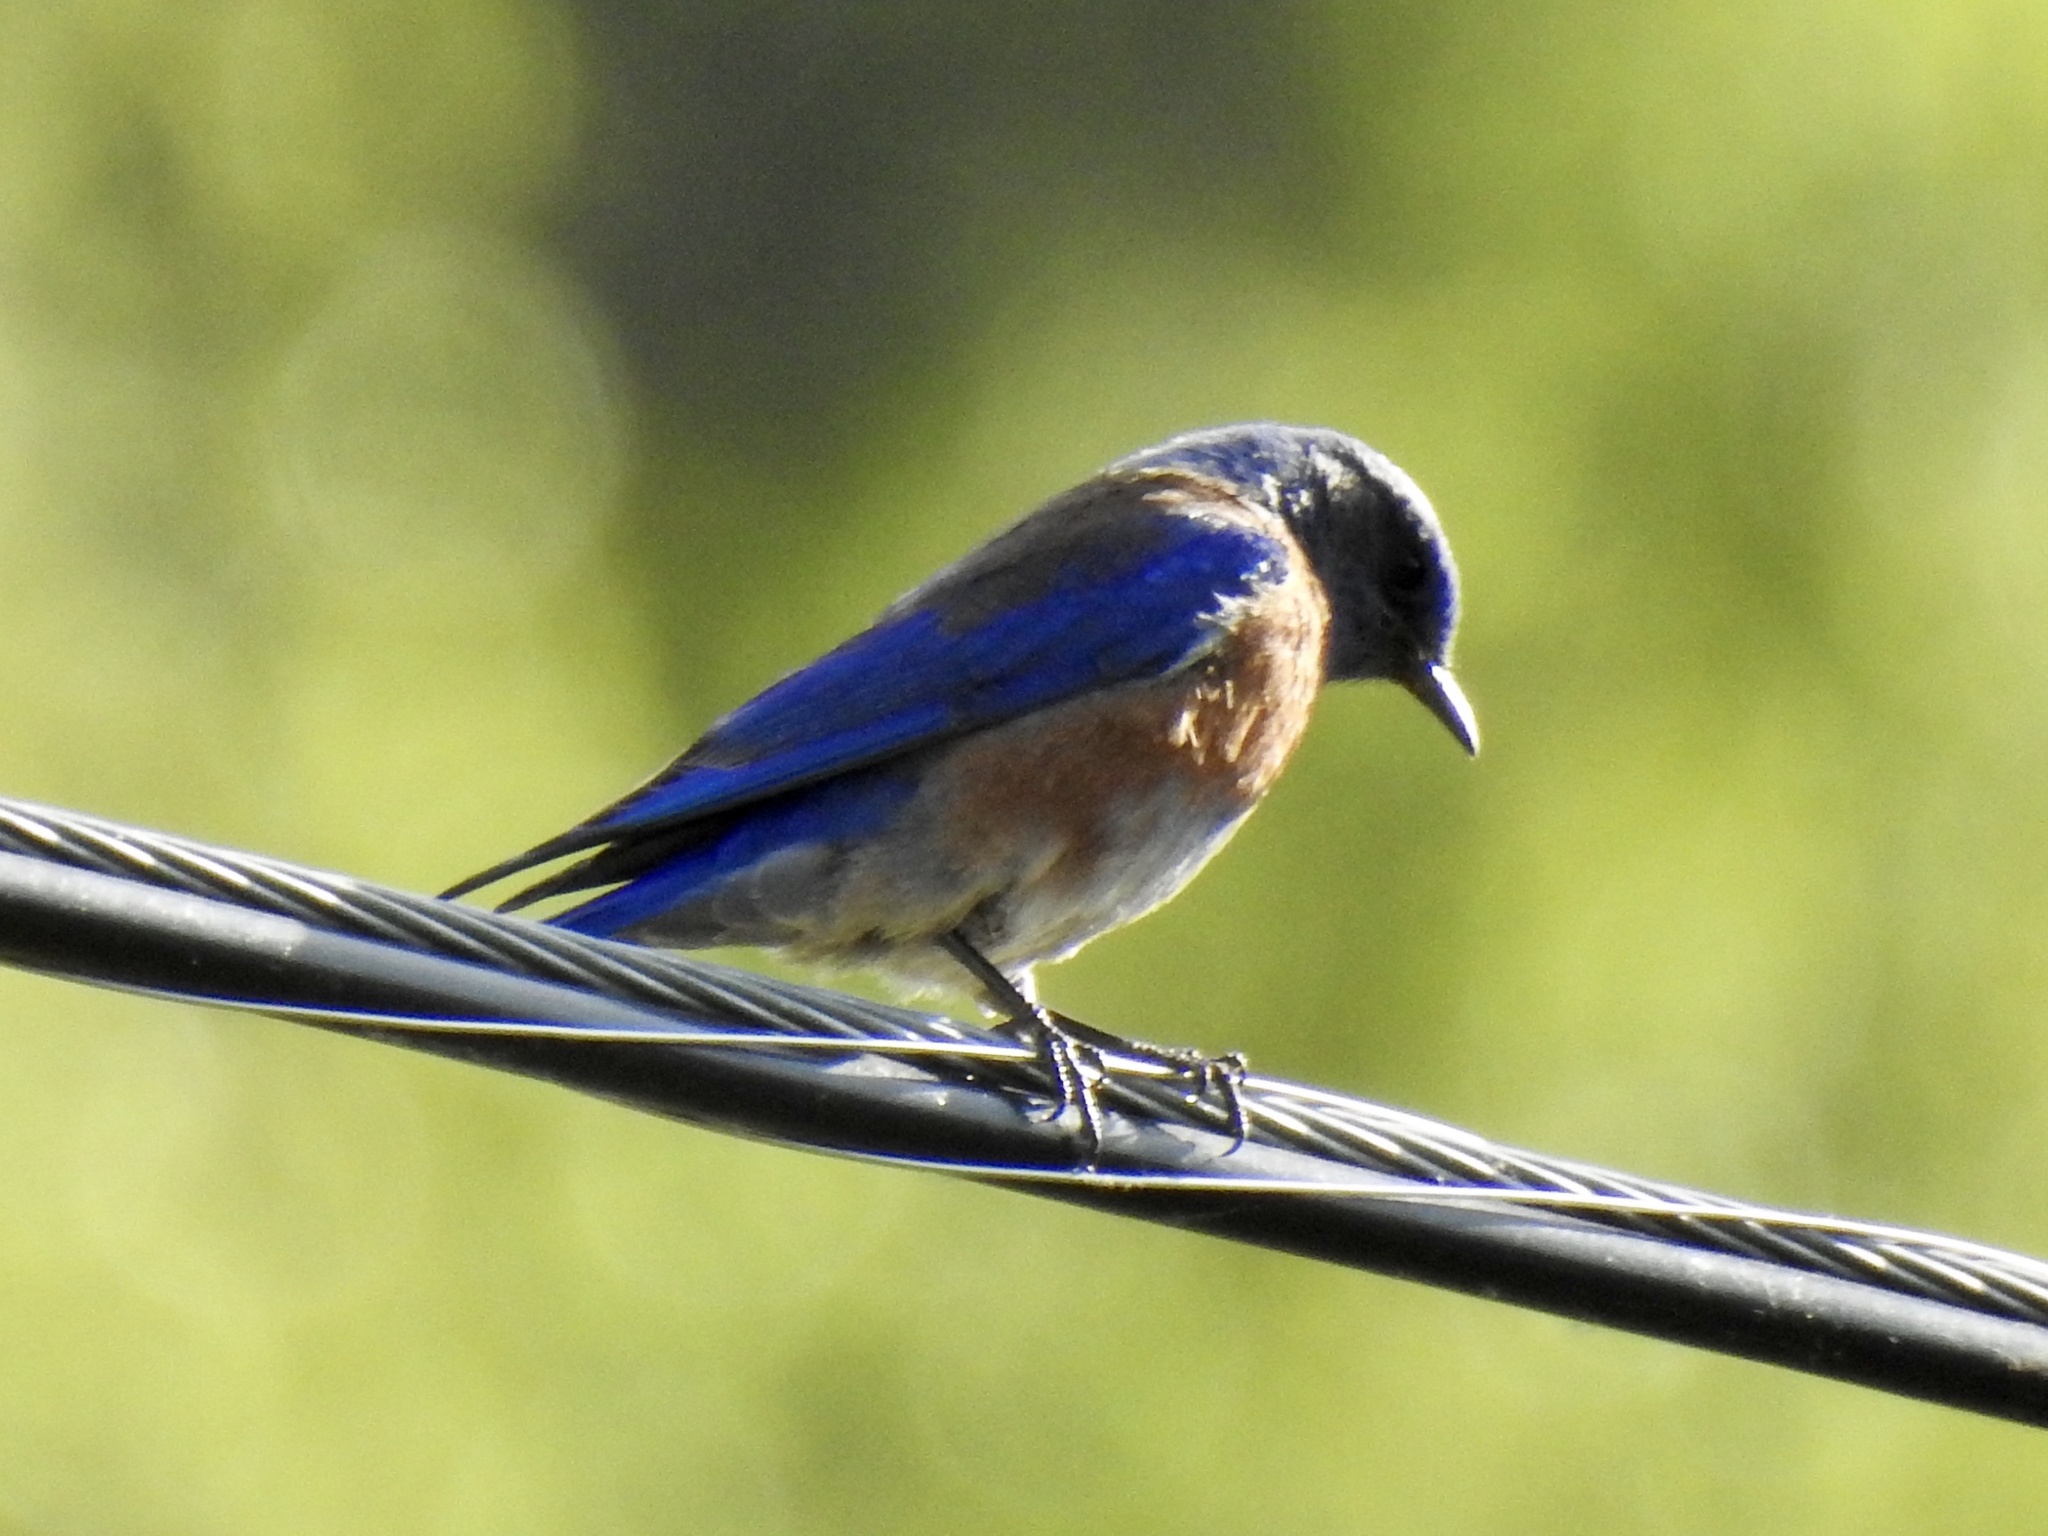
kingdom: Animalia
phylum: Chordata
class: Aves
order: Passeriformes
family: Turdidae
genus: Sialia
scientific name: Sialia mexicana
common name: Western bluebird
